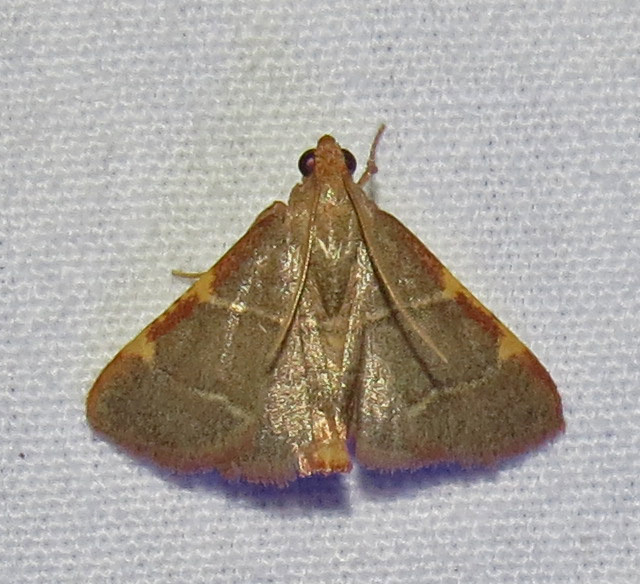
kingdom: Animalia
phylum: Arthropoda
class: Insecta
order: Lepidoptera
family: Pyralidae
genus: Hypsopygia
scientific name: Hypsopygia binodulalis
